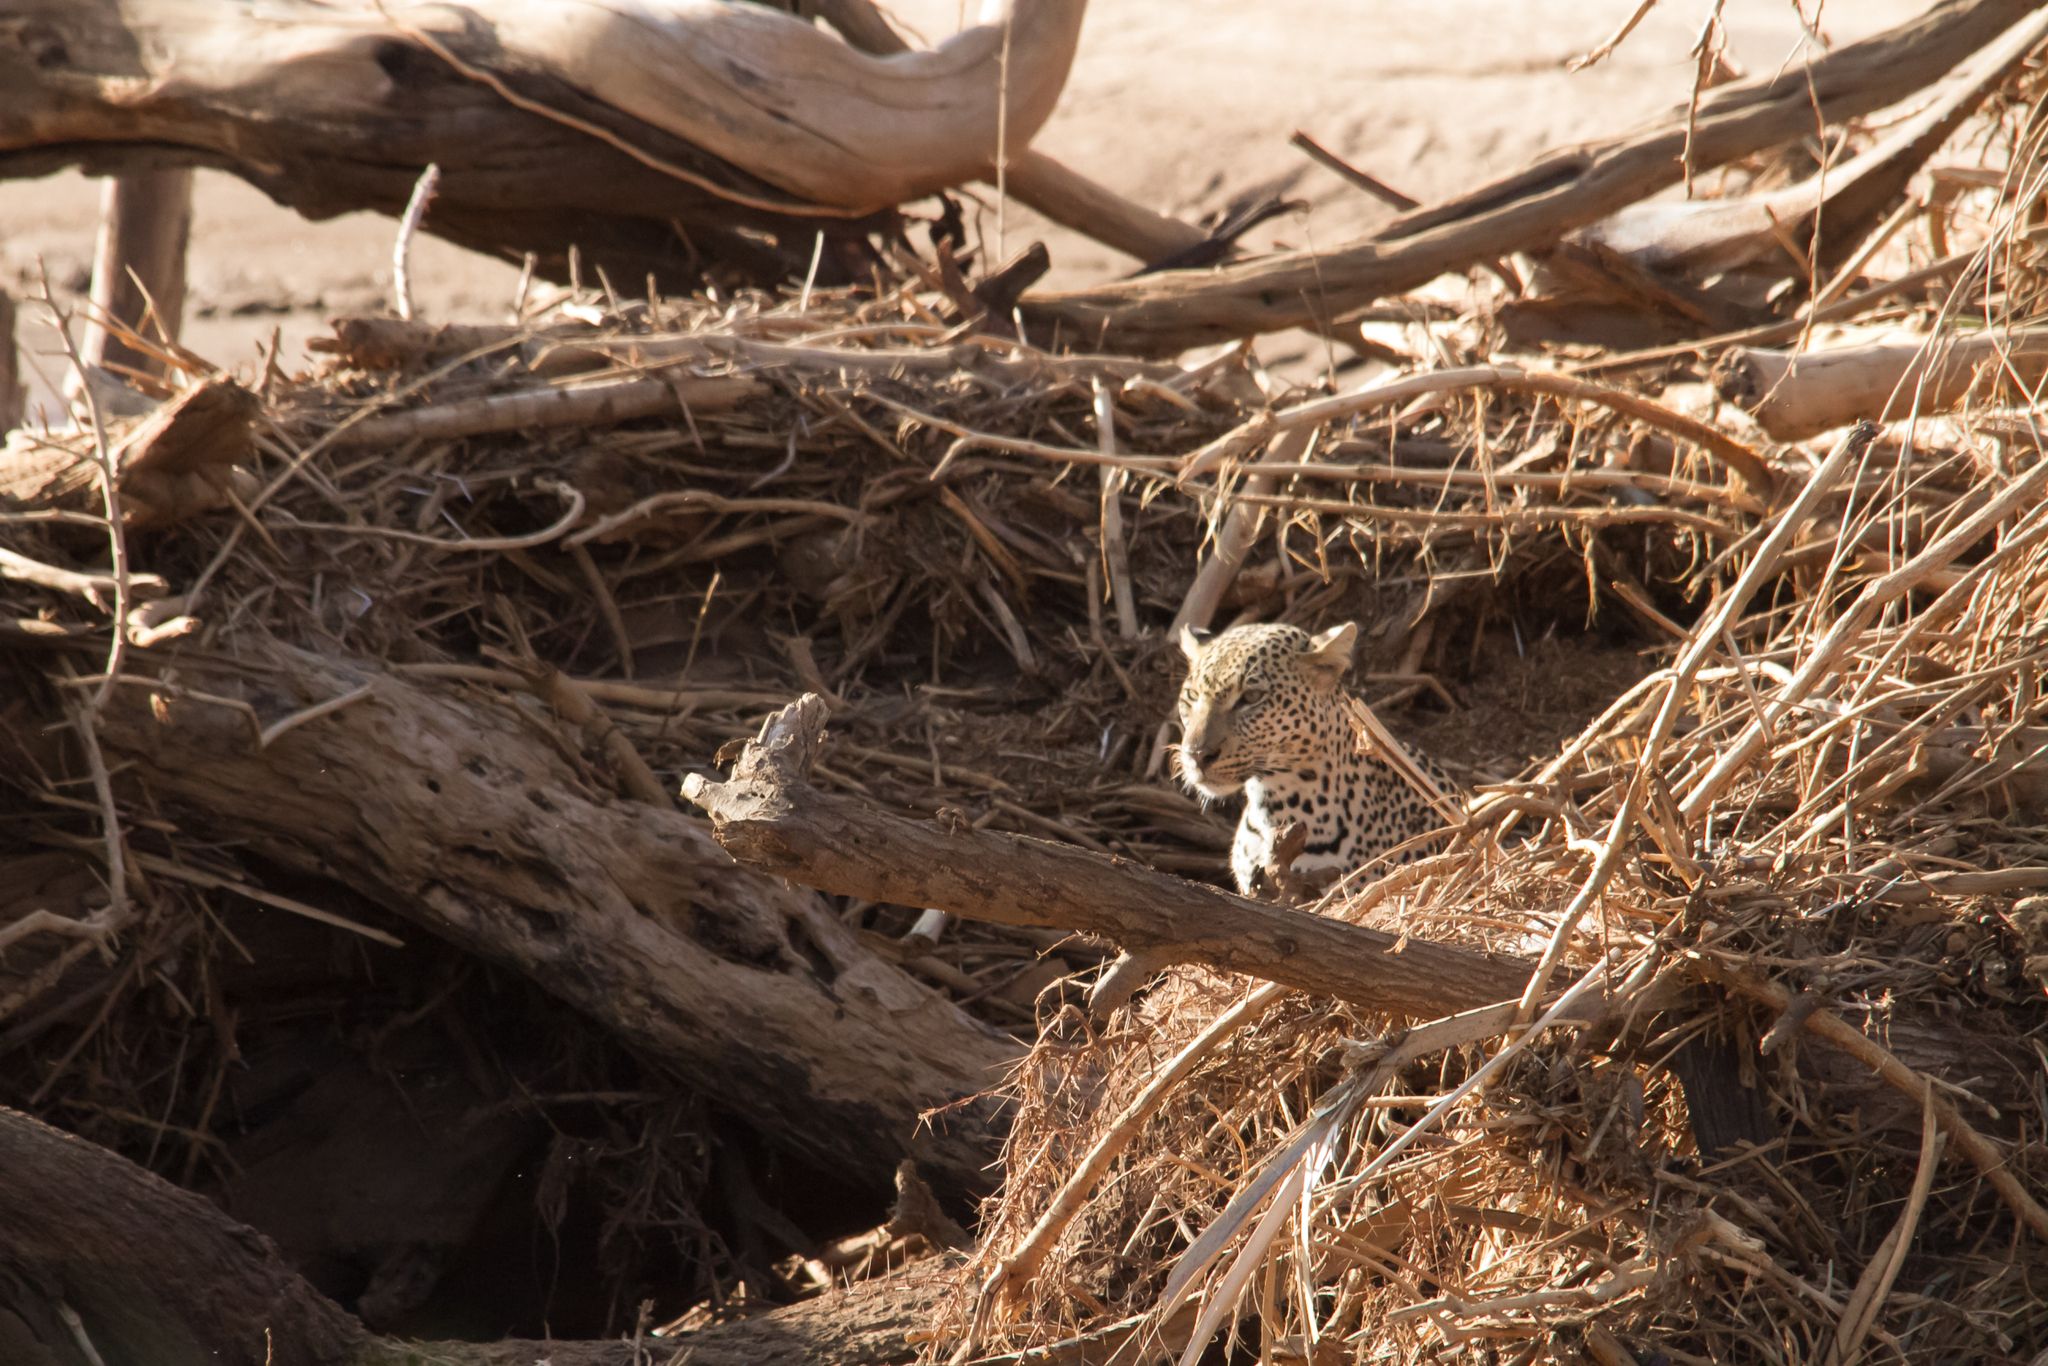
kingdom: Animalia
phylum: Chordata
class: Mammalia
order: Carnivora
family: Felidae
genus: Panthera
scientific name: Panthera pardus
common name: Leopard
